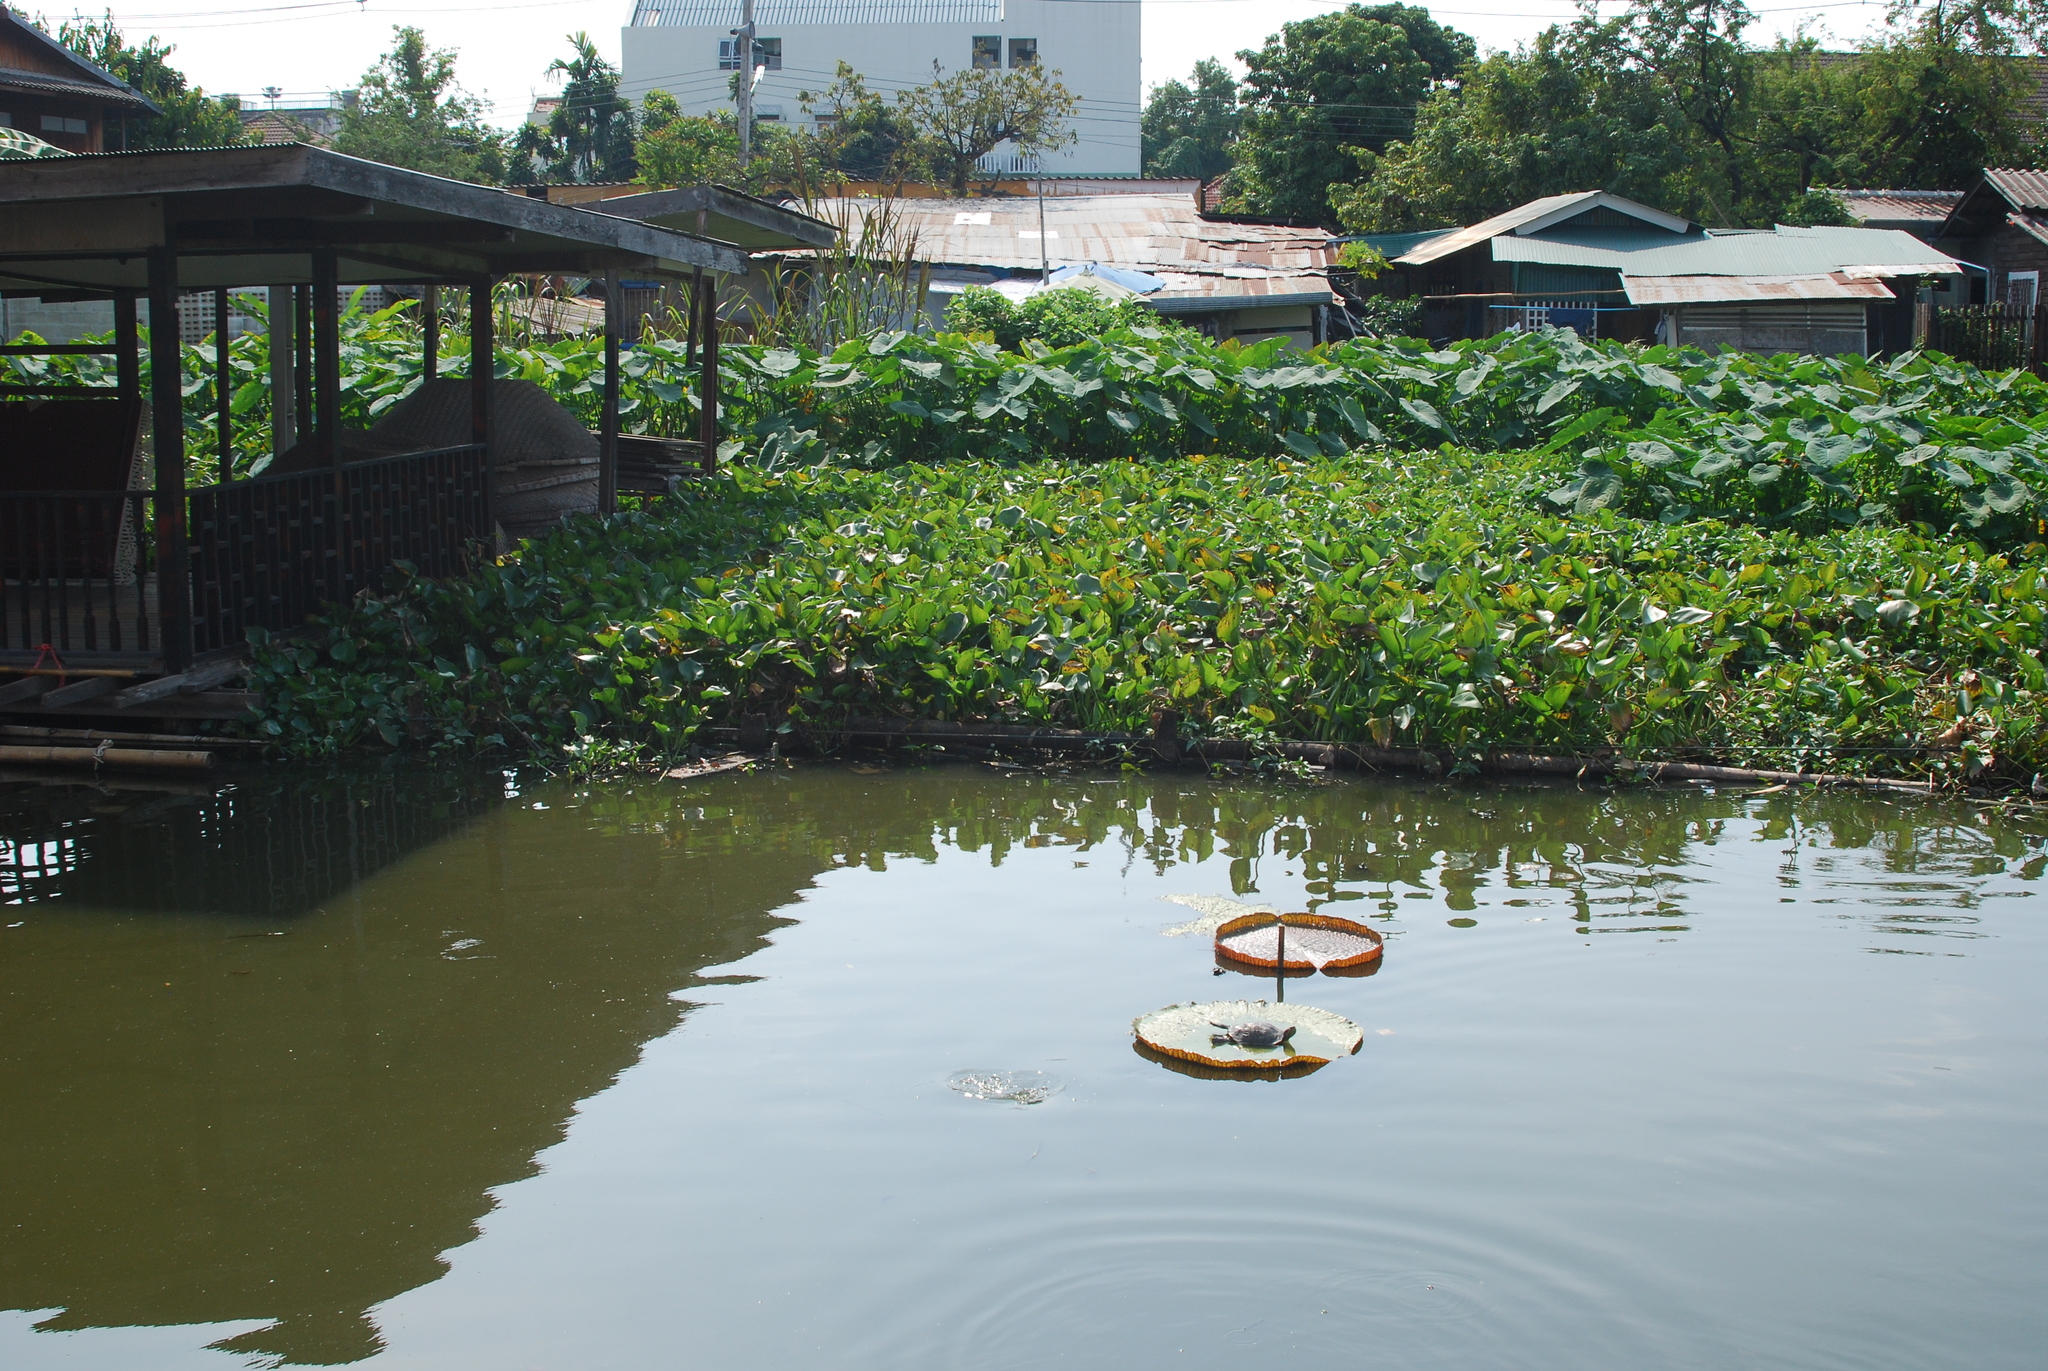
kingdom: Animalia
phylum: Chordata
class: Testudines
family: Emydidae
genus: Trachemys
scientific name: Trachemys scripta
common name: Slider
